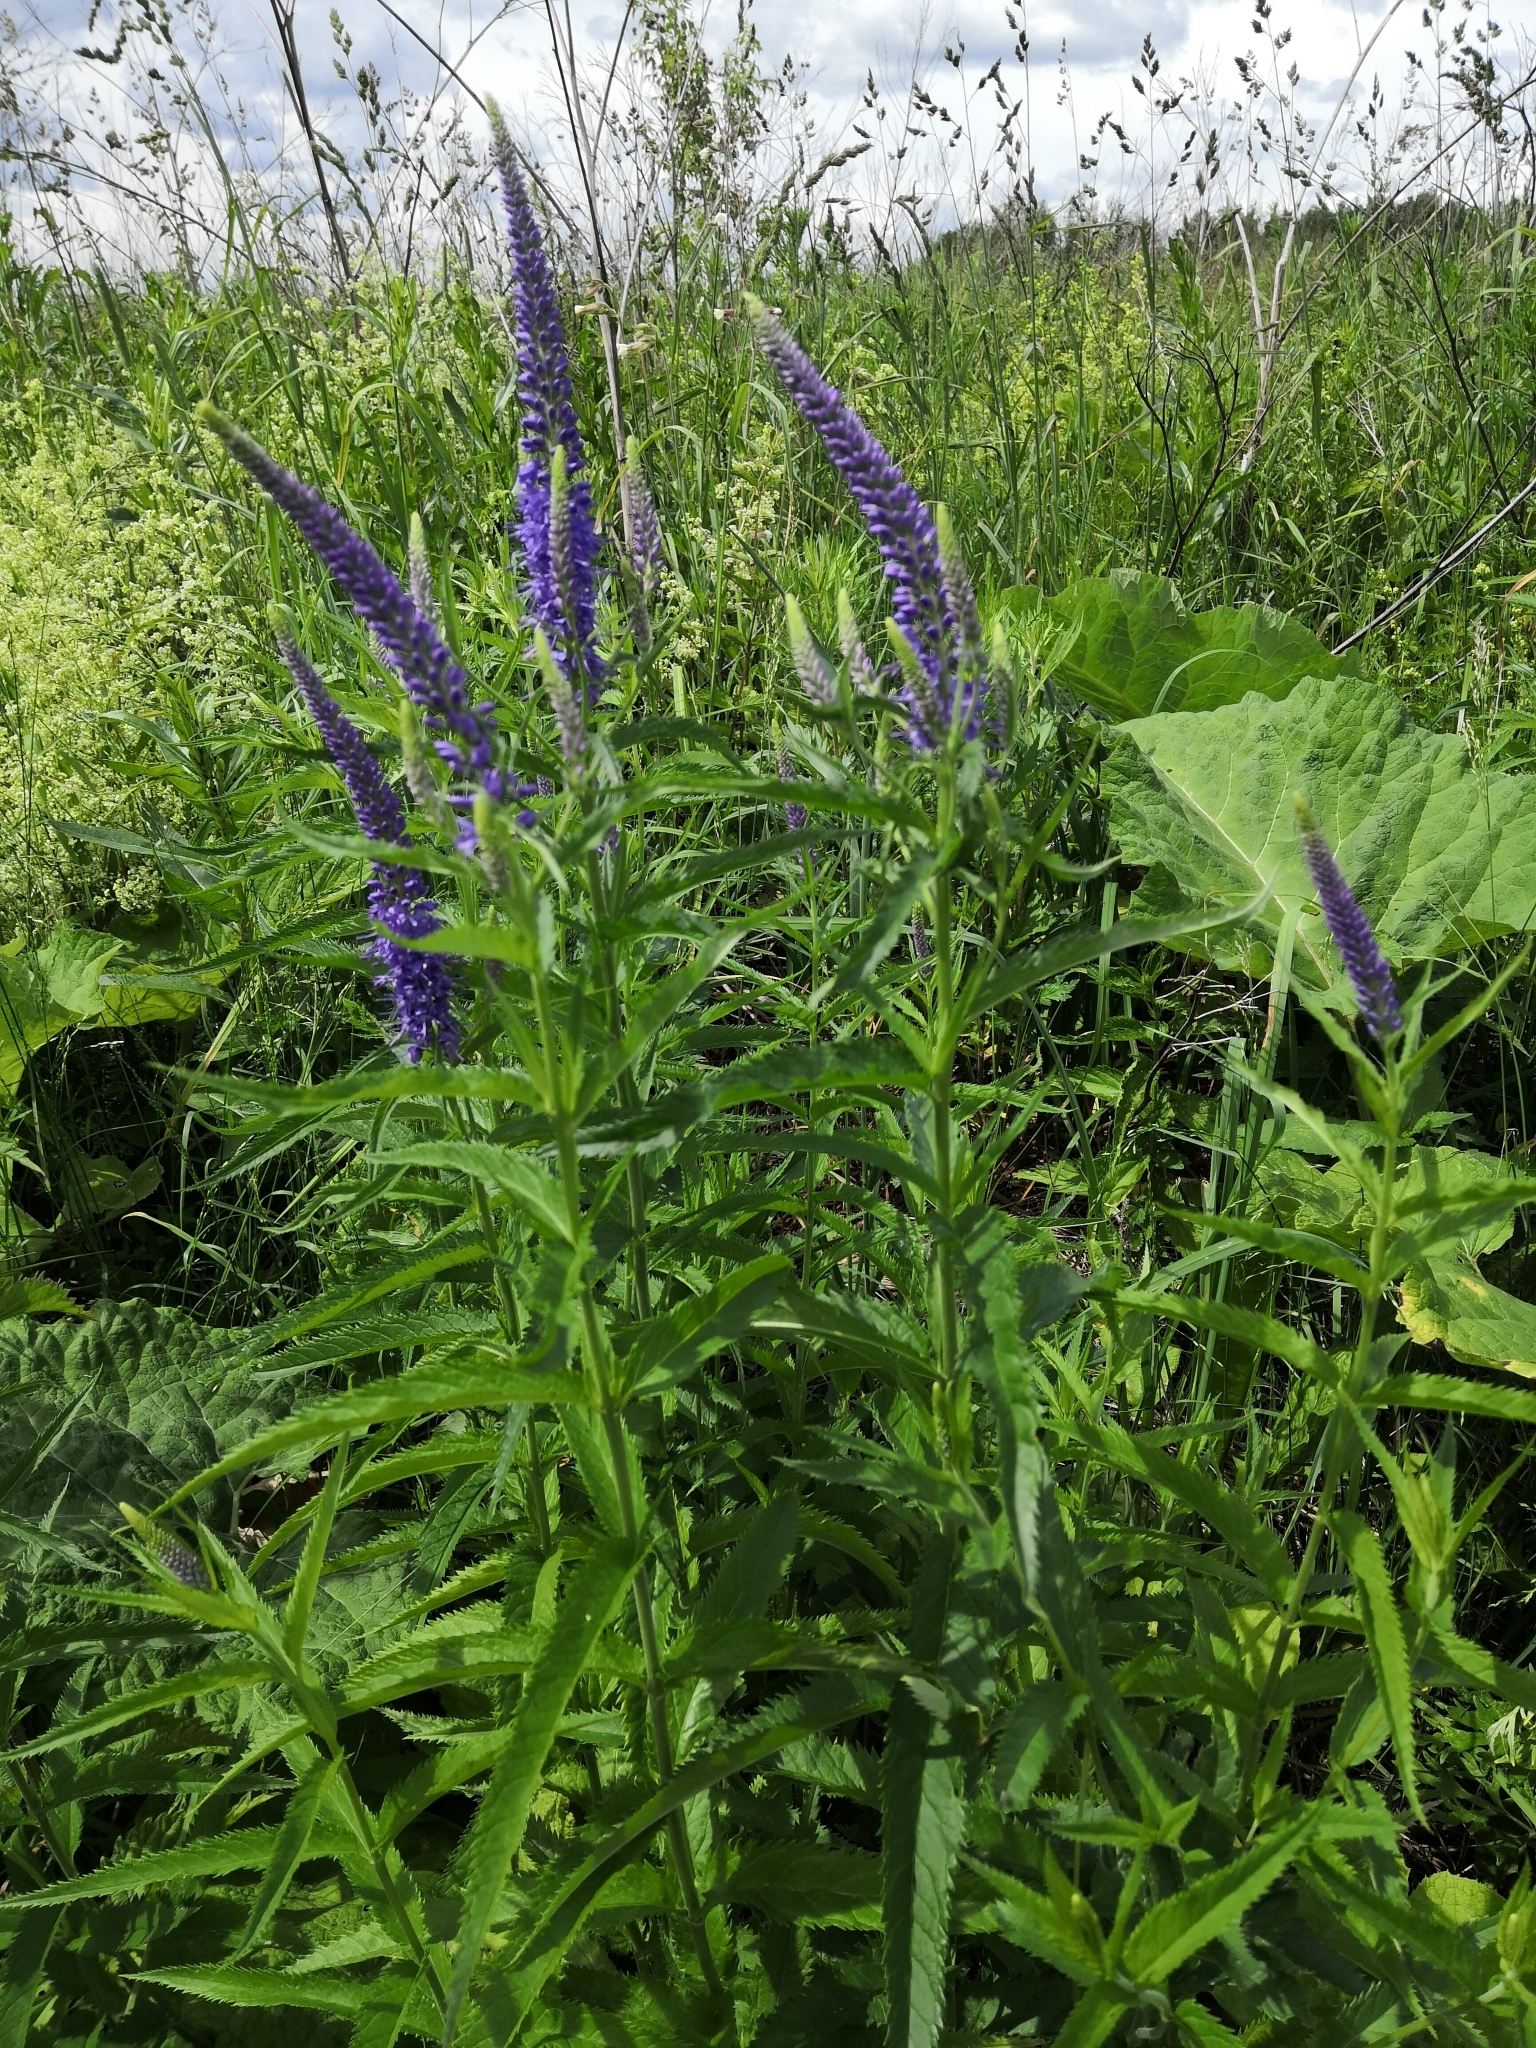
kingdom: Plantae
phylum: Tracheophyta
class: Magnoliopsida
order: Lamiales
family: Plantaginaceae
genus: Veronica
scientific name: Veronica longifolia
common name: Garden speedwell
